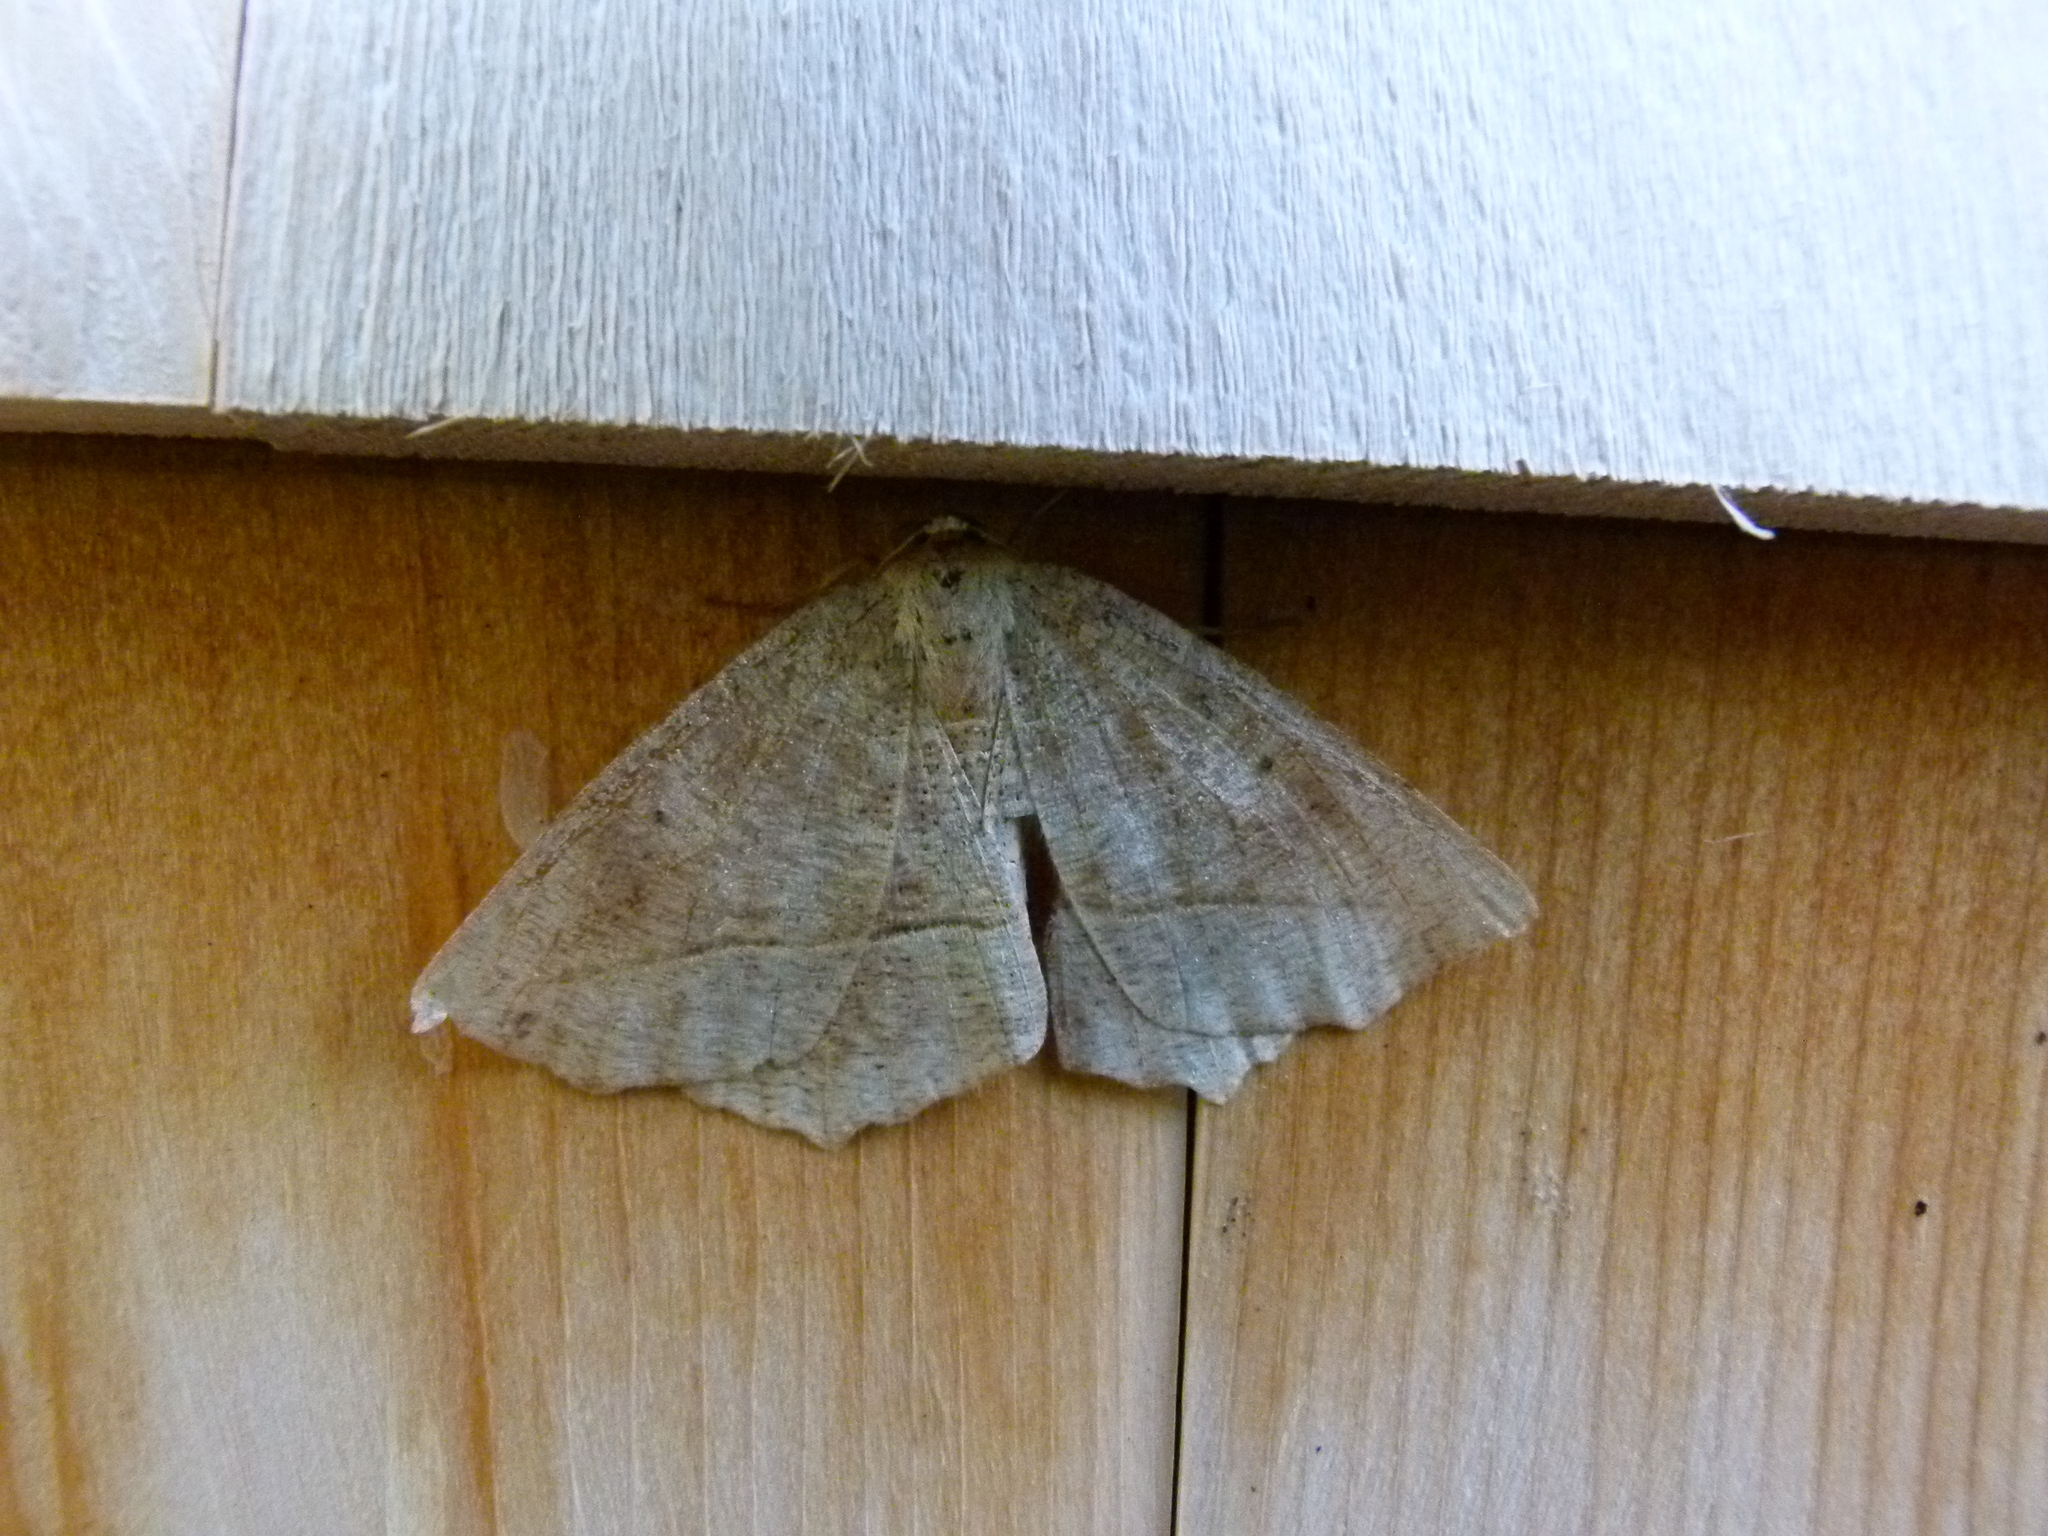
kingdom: Animalia
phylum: Arthropoda
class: Insecta
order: Lepidoptera
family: Geometridae
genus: Eutrapela
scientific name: Eutrapela clemataria
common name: Curved-toothed geometer
